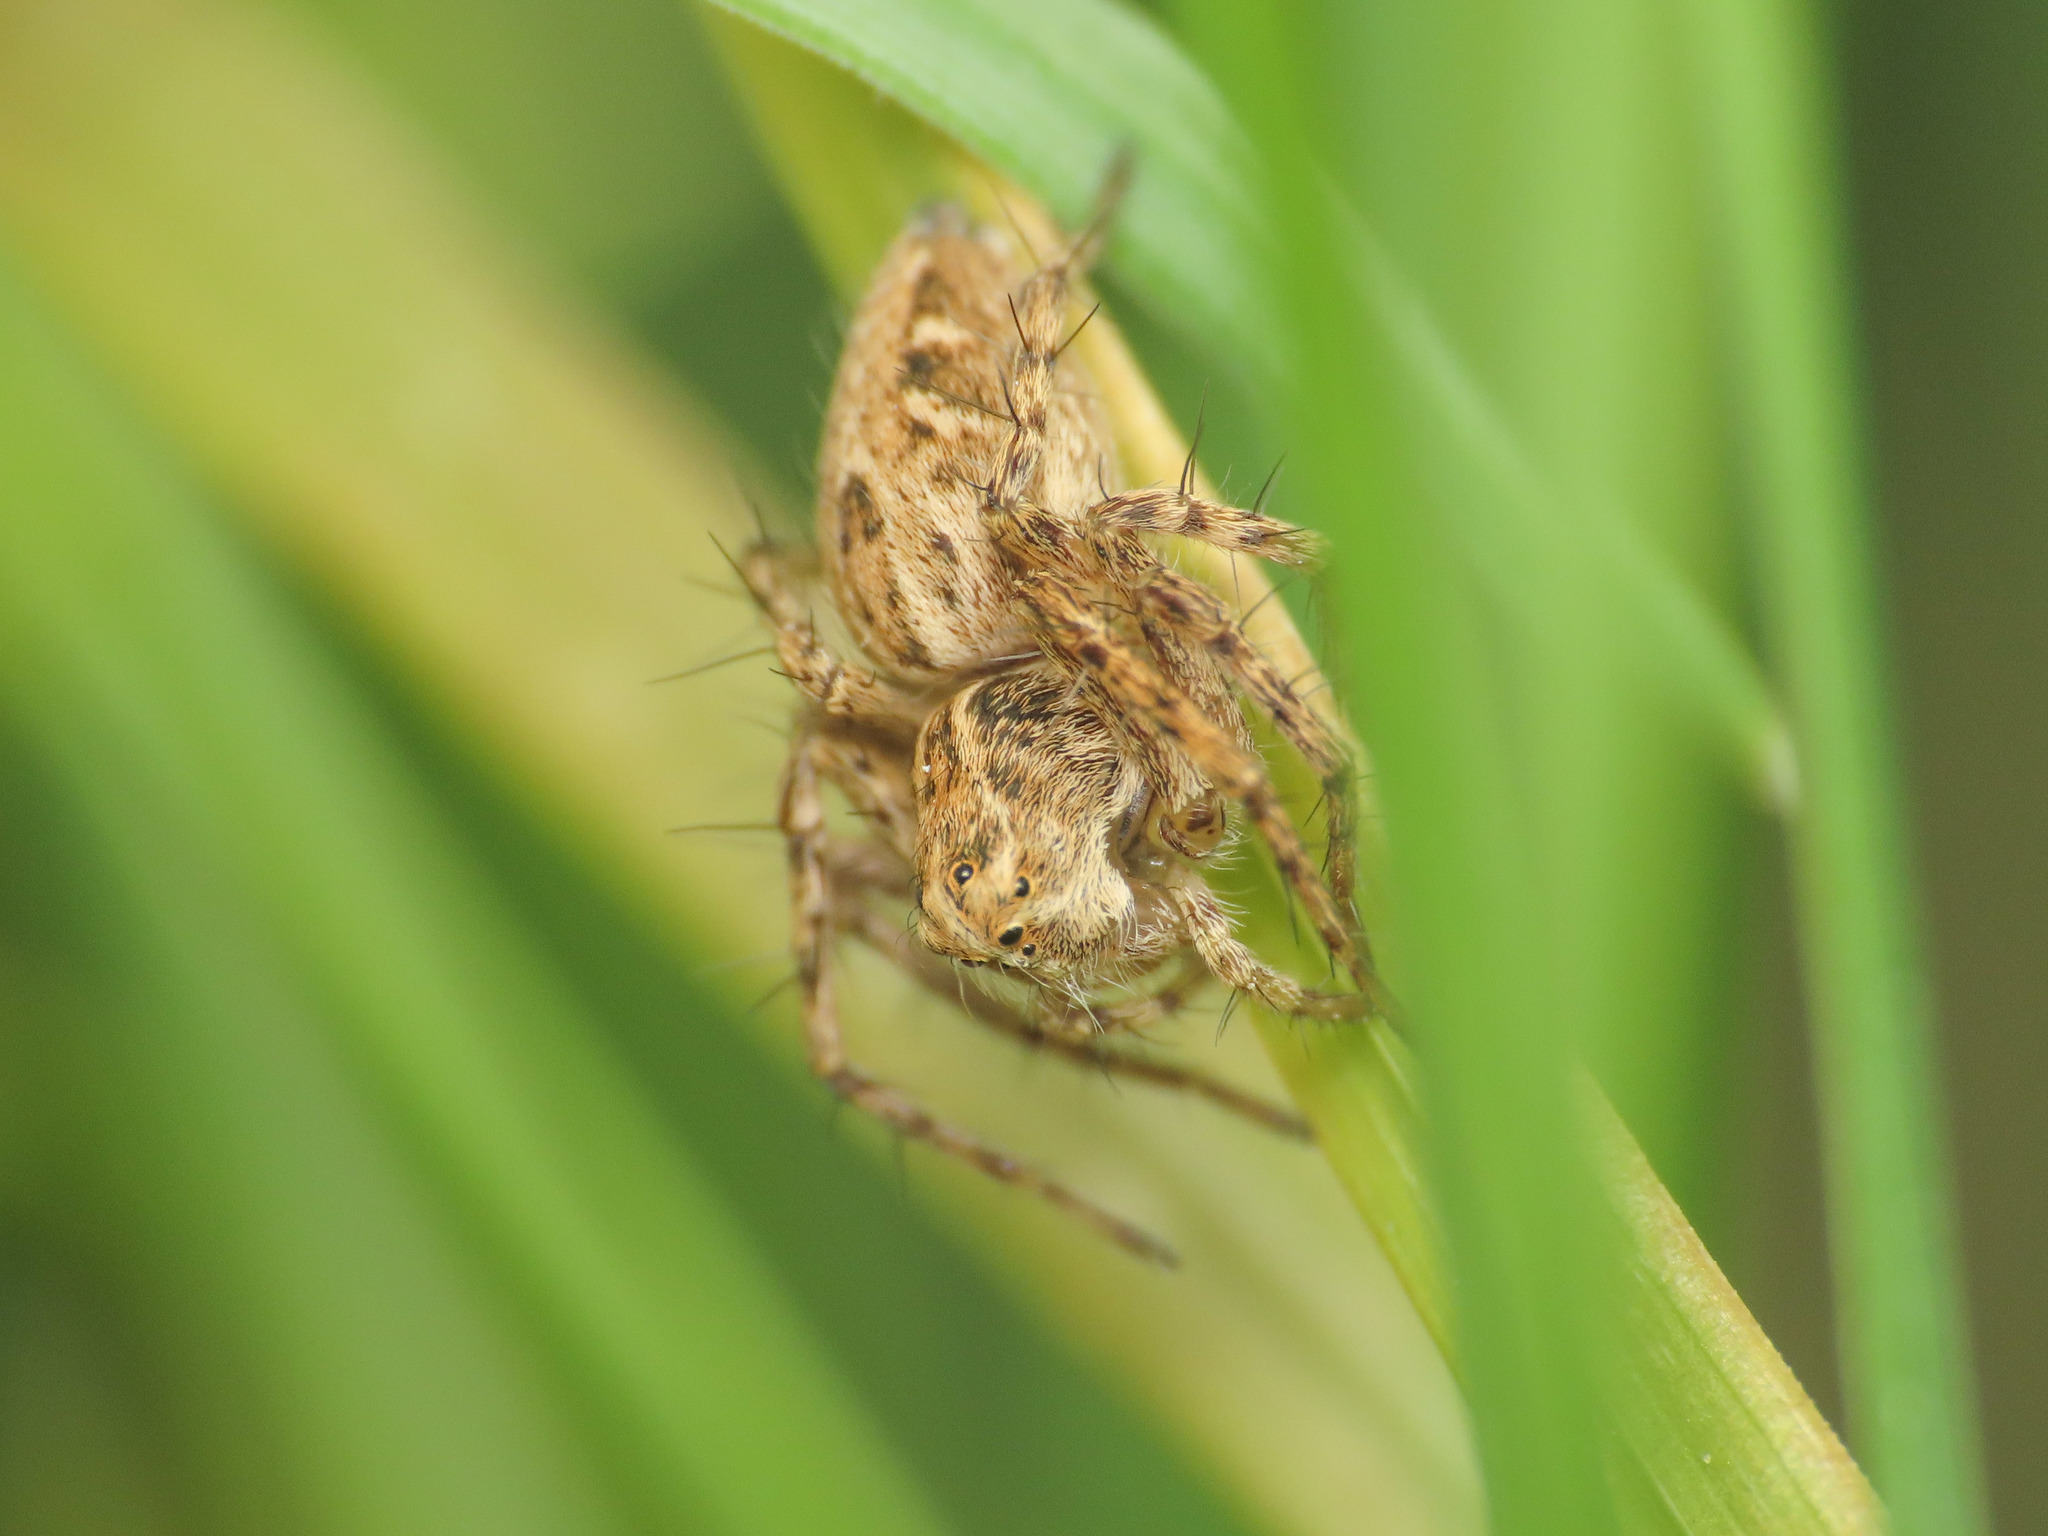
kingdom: Animalia
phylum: Arthropoda
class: Arachnida
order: Araneae
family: Oxyopidae
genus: Oxyopes
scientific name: Oxyopes heterophthalmus
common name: Lynx spider
